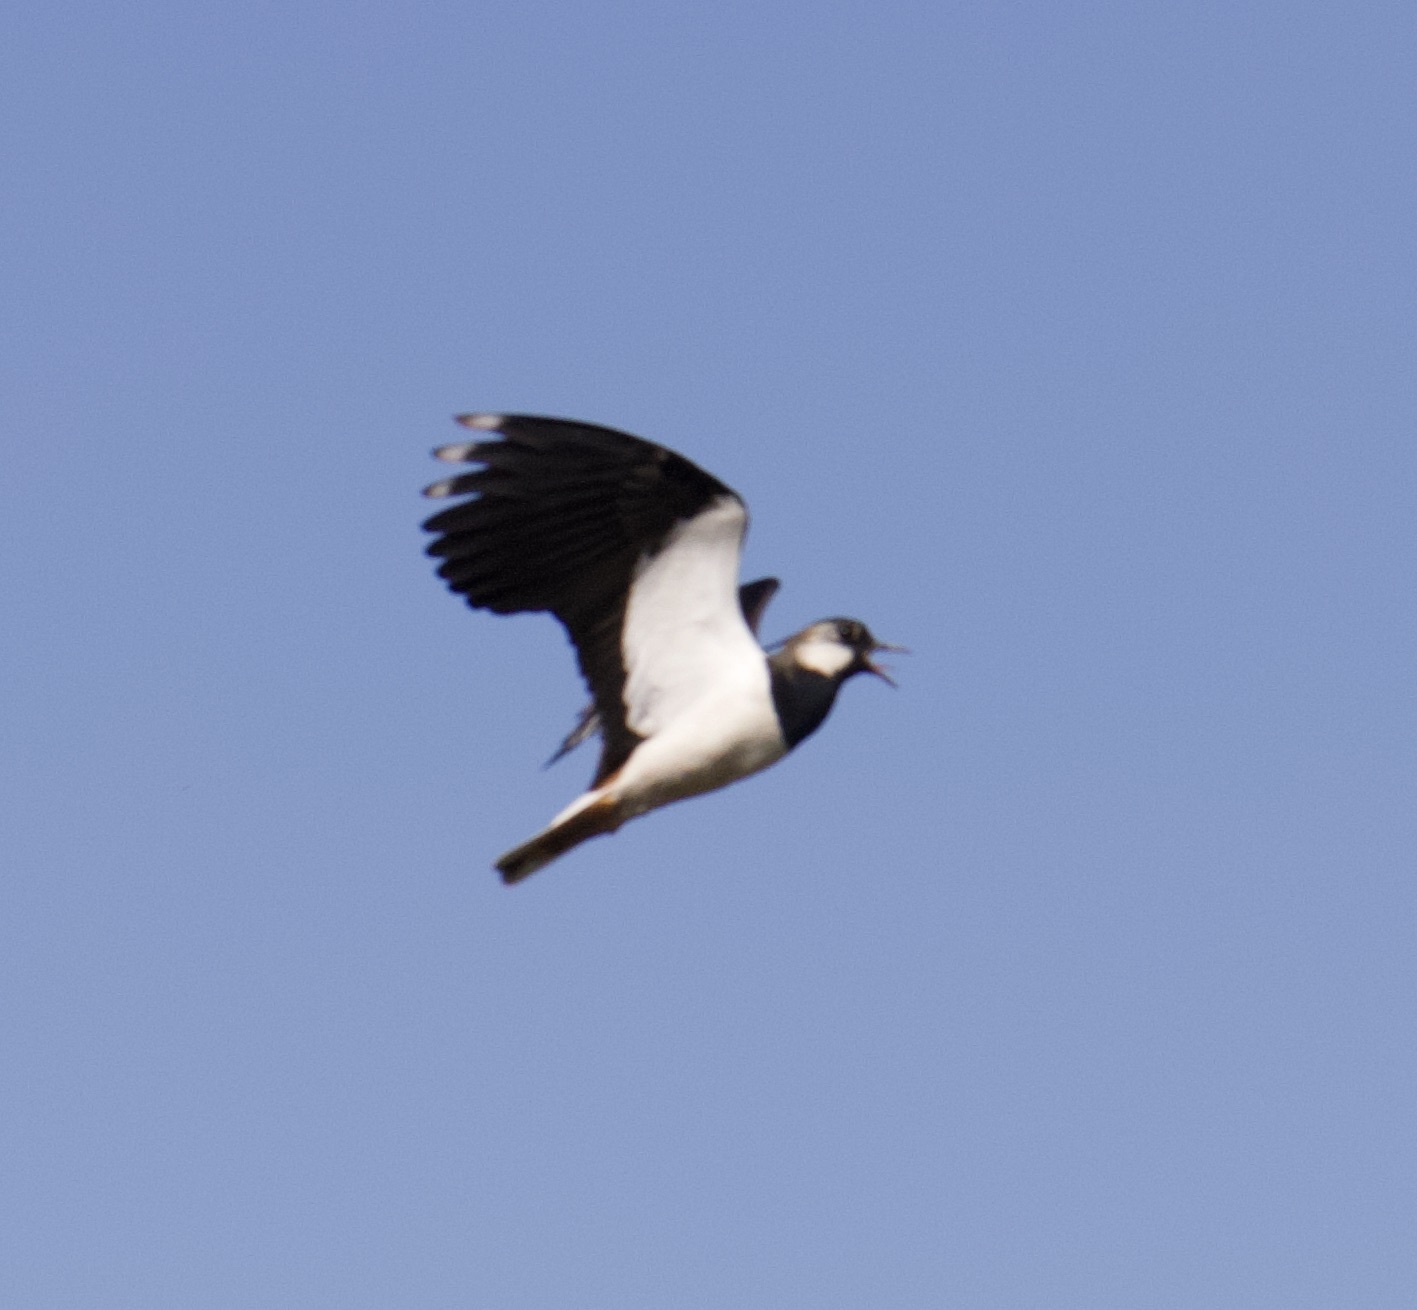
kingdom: Animalia
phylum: Chordata
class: Aves
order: Charadriiformes
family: Charadriidae
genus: Vanellus
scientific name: Vanellus vanellus
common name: Northern lapwing
